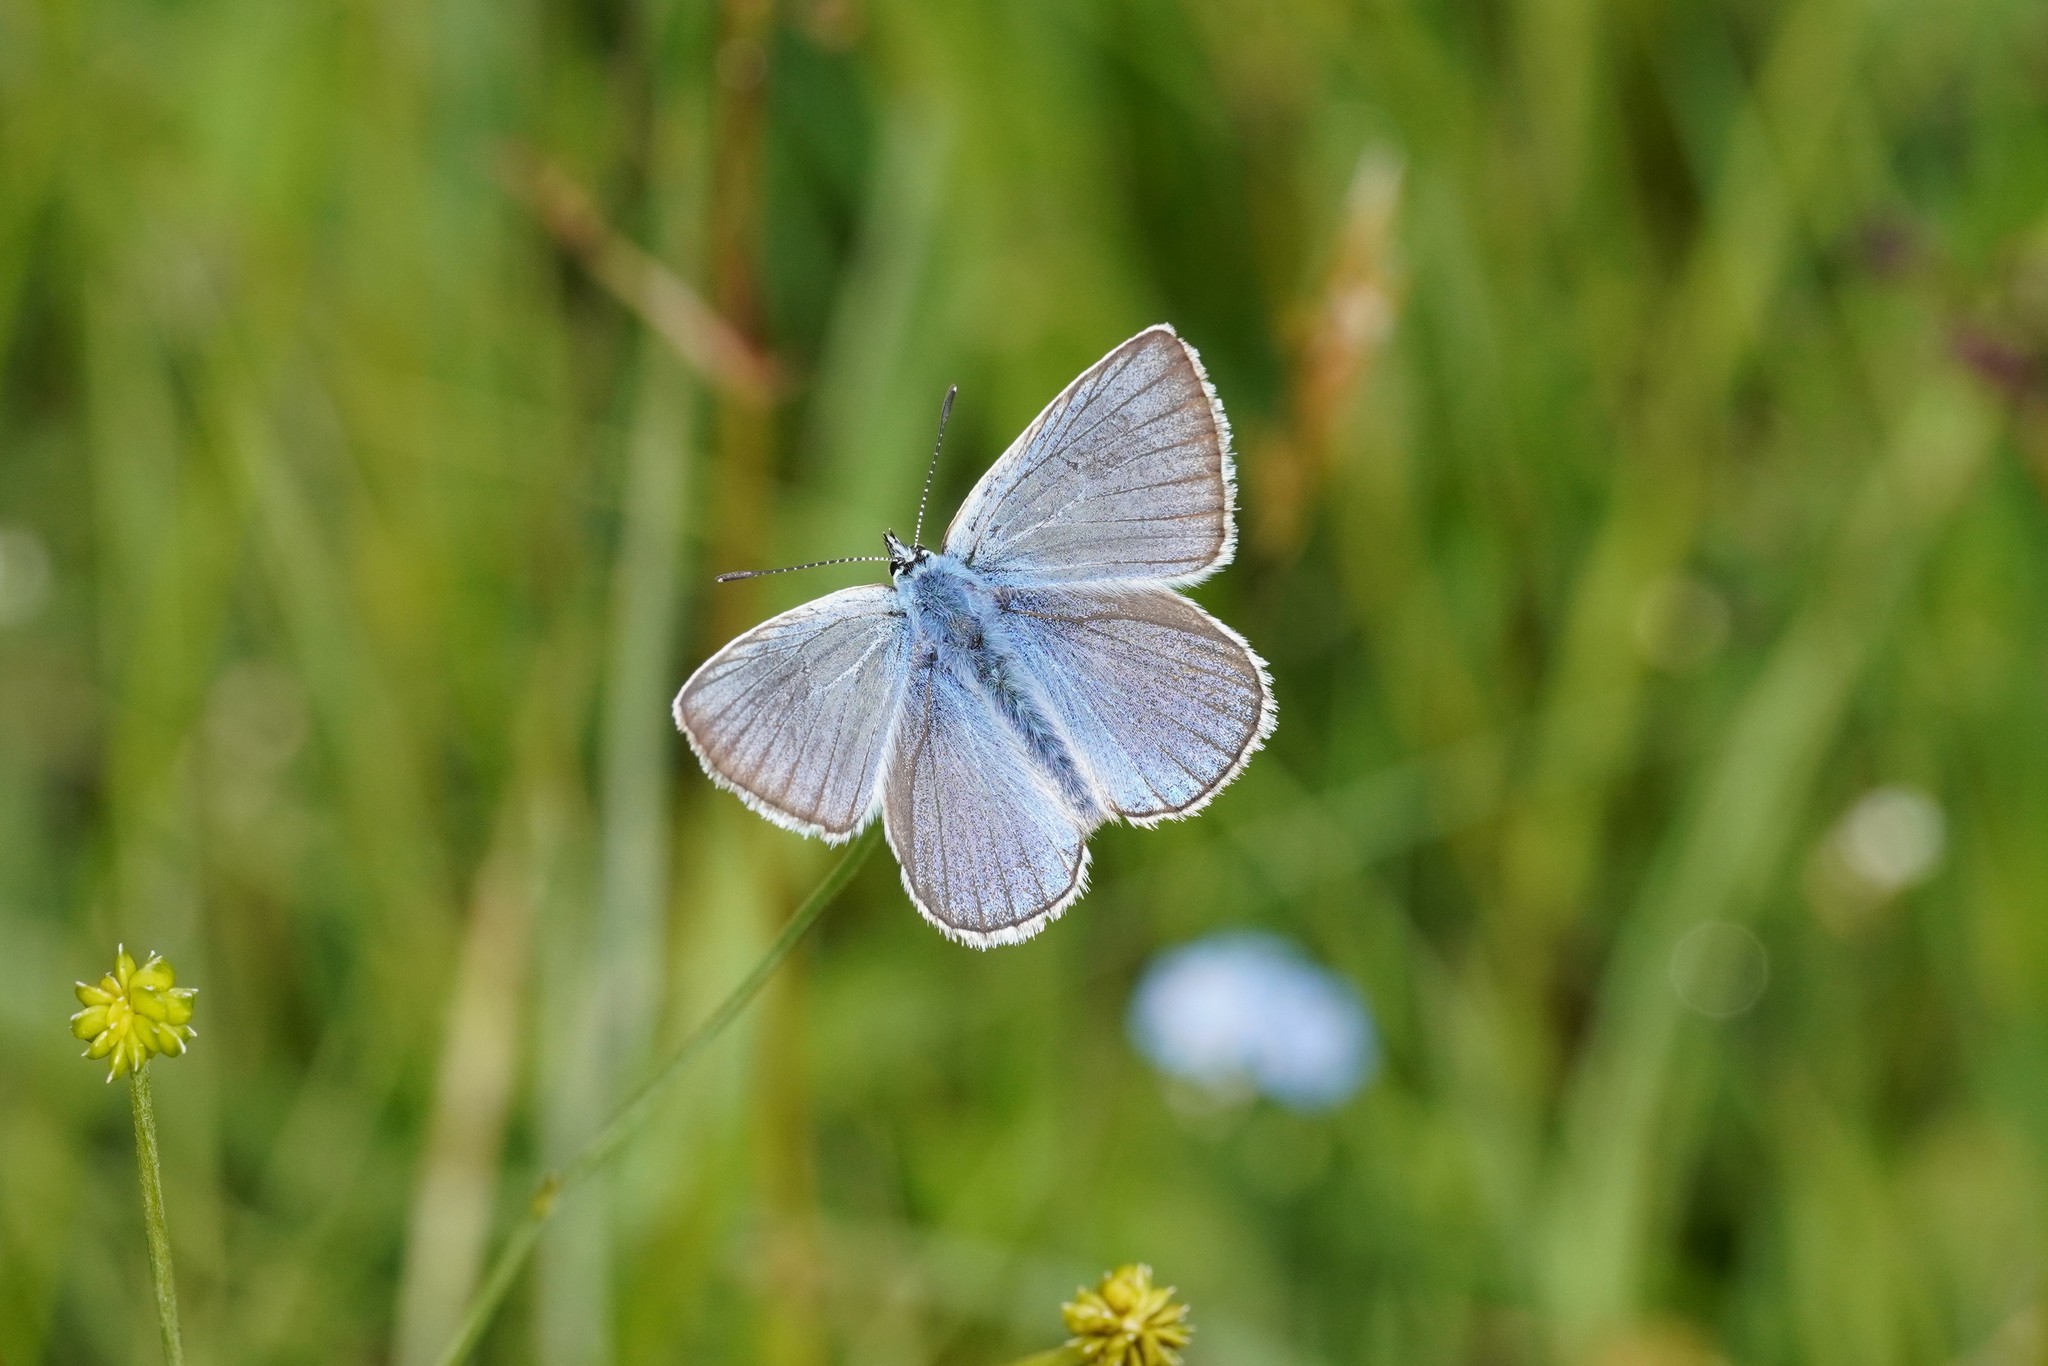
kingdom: Animalia
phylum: Arthropoda
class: Insecta
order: Lepidoptera
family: Lycaenidae
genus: Plebejus
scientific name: Plebejus amanda
